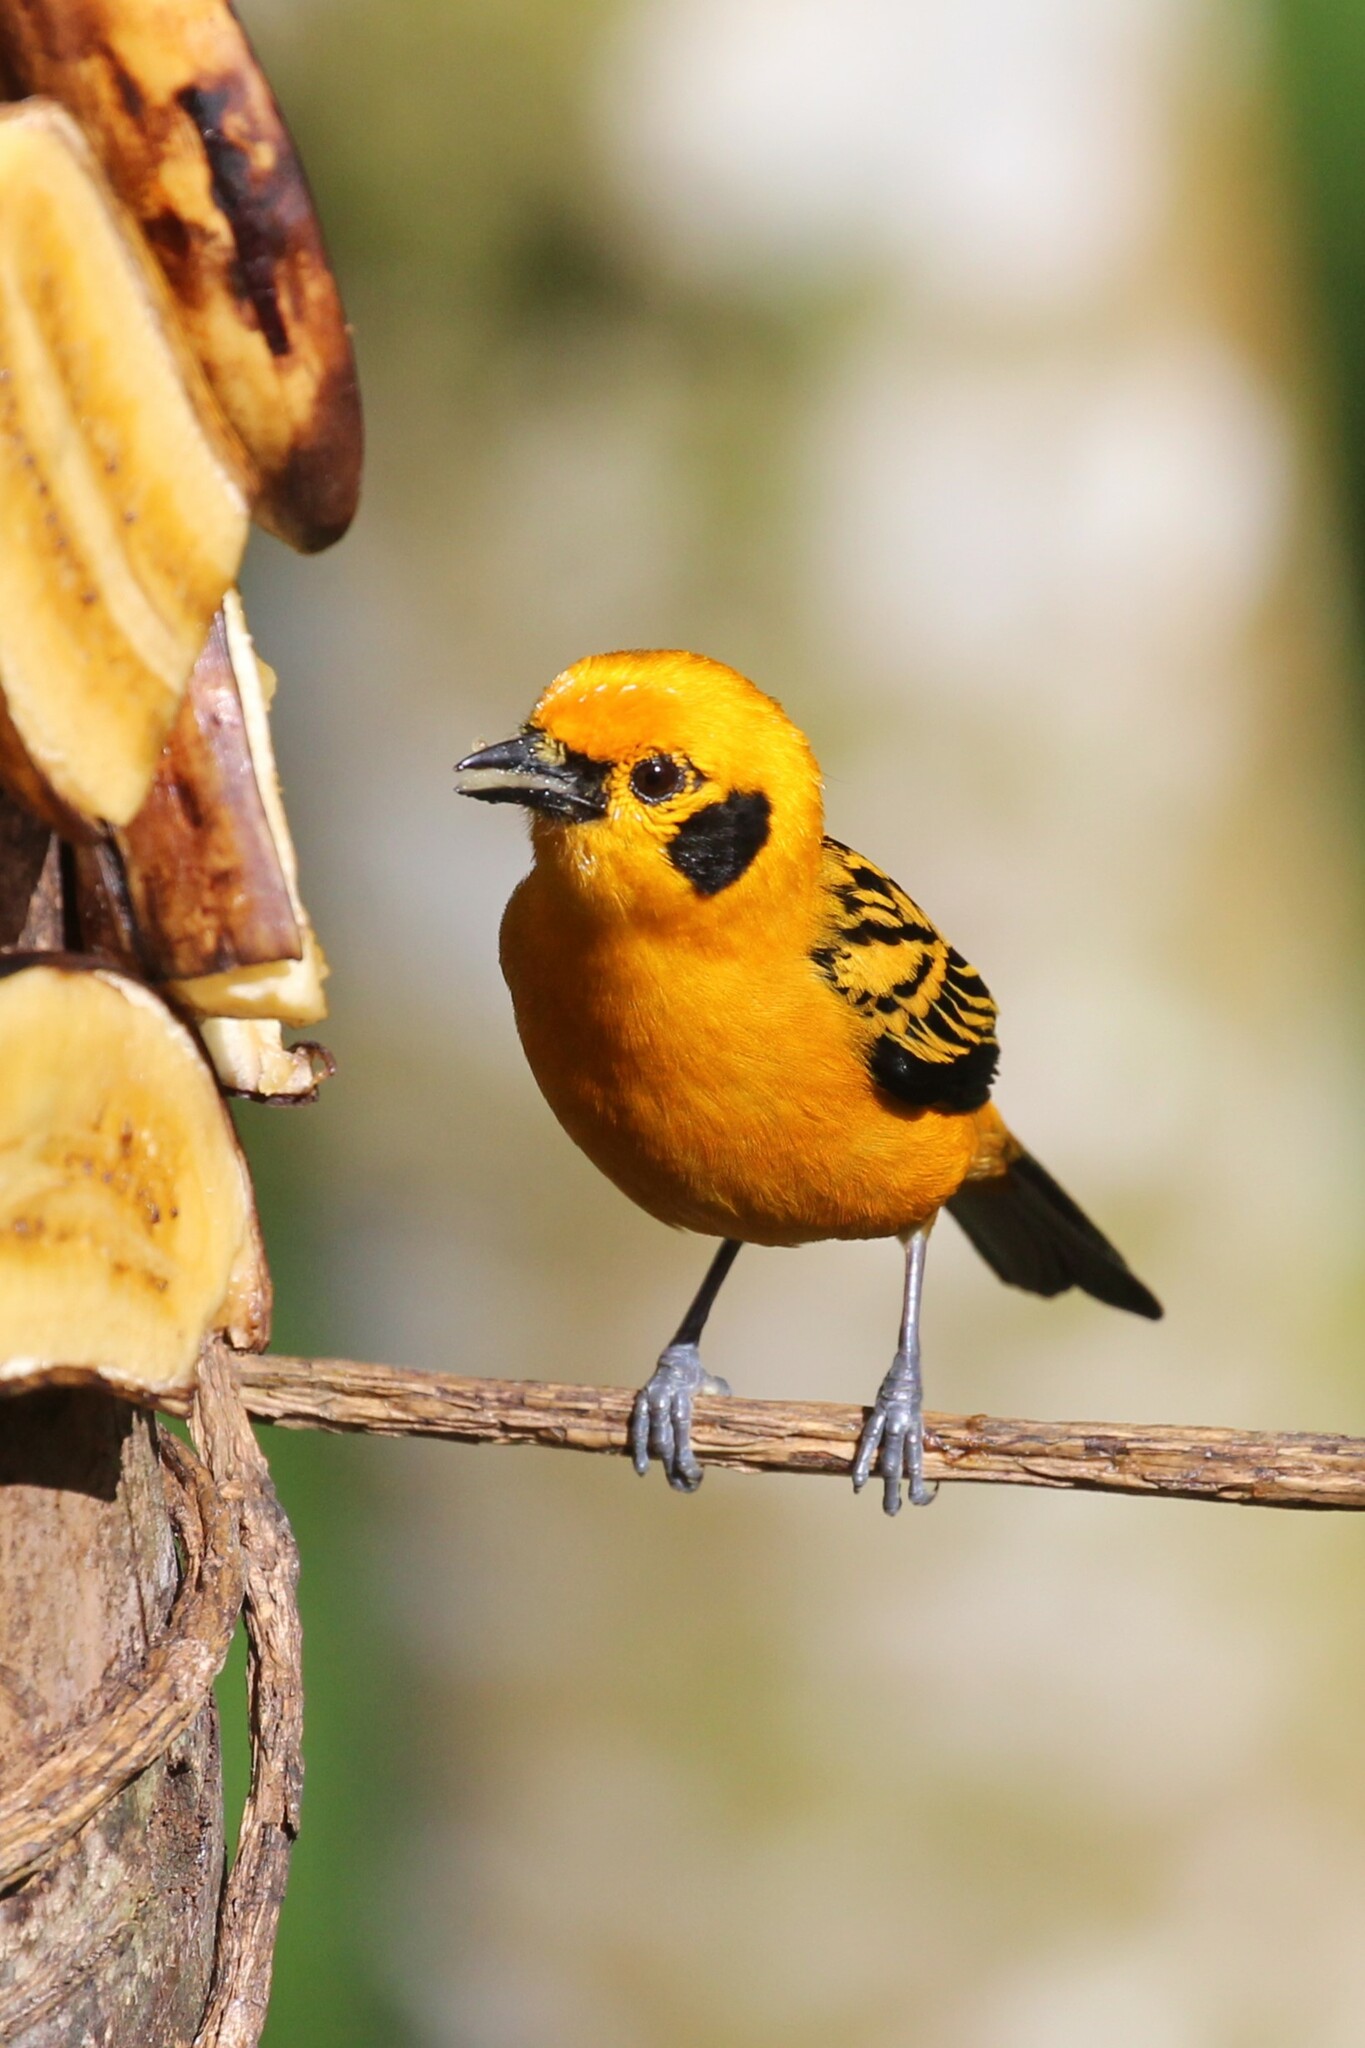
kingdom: Animalia
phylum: Chordata
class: Aves
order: Passeriformes
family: Thraupidae
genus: Tangara
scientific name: Tangara arthus
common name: Golden tanager
